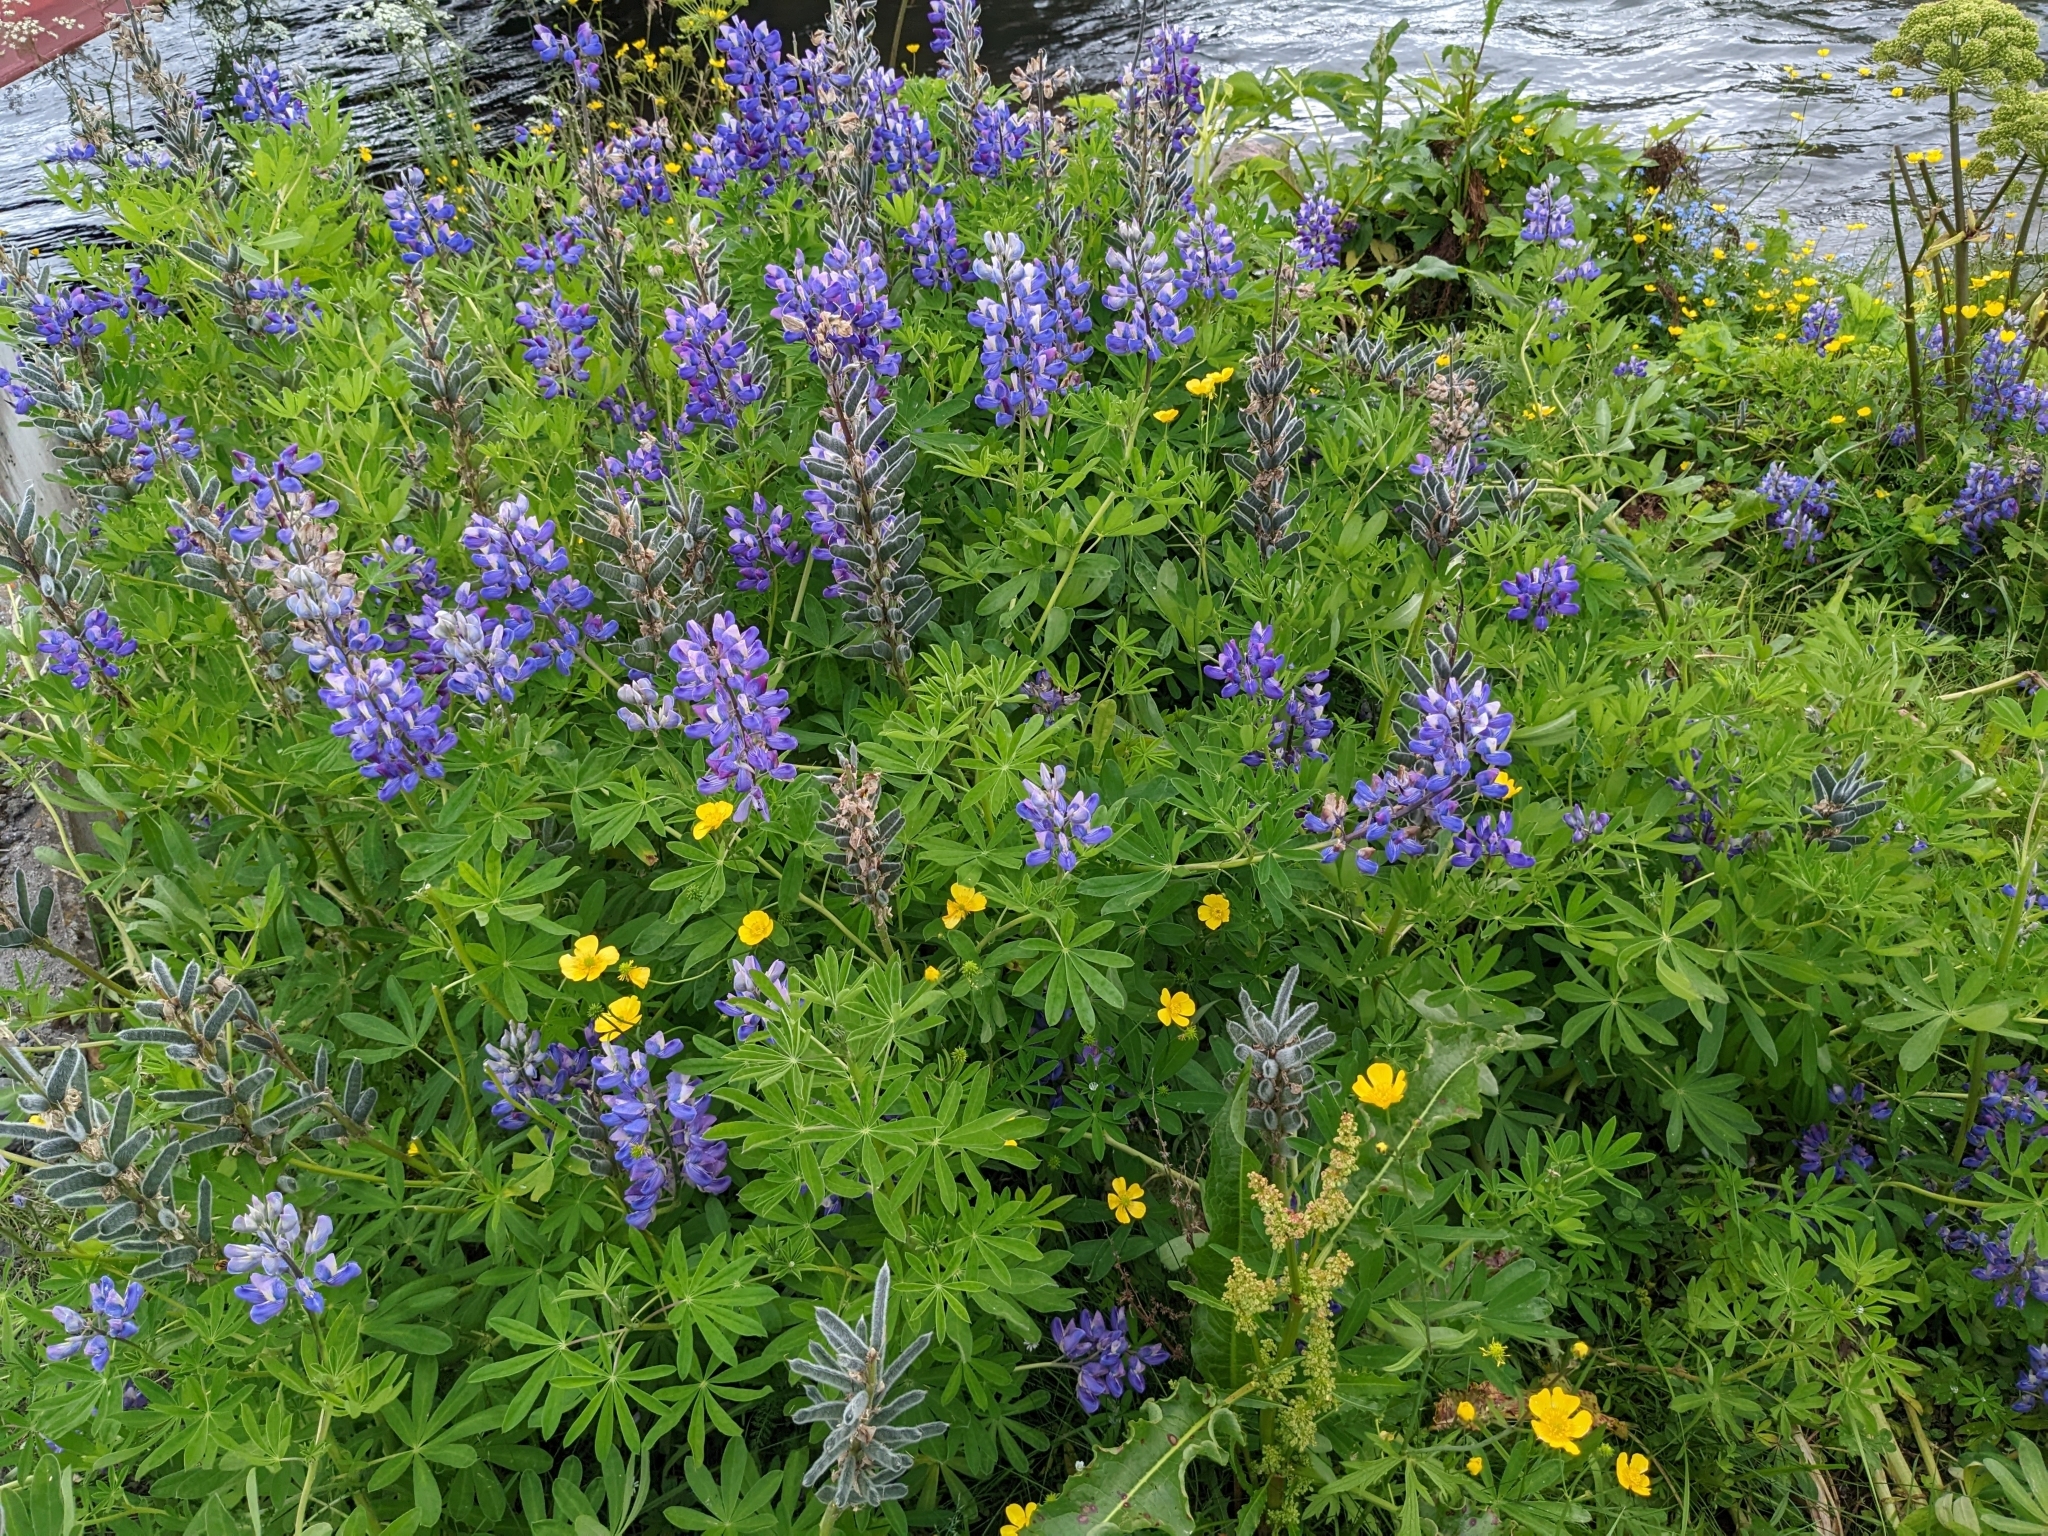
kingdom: Plantae
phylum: Tracheophyta
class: Magnoliopsida
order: Fabales
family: Fabaceae
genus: Lupinus
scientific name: Lupinus nootkatensis
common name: Nootka lupine
